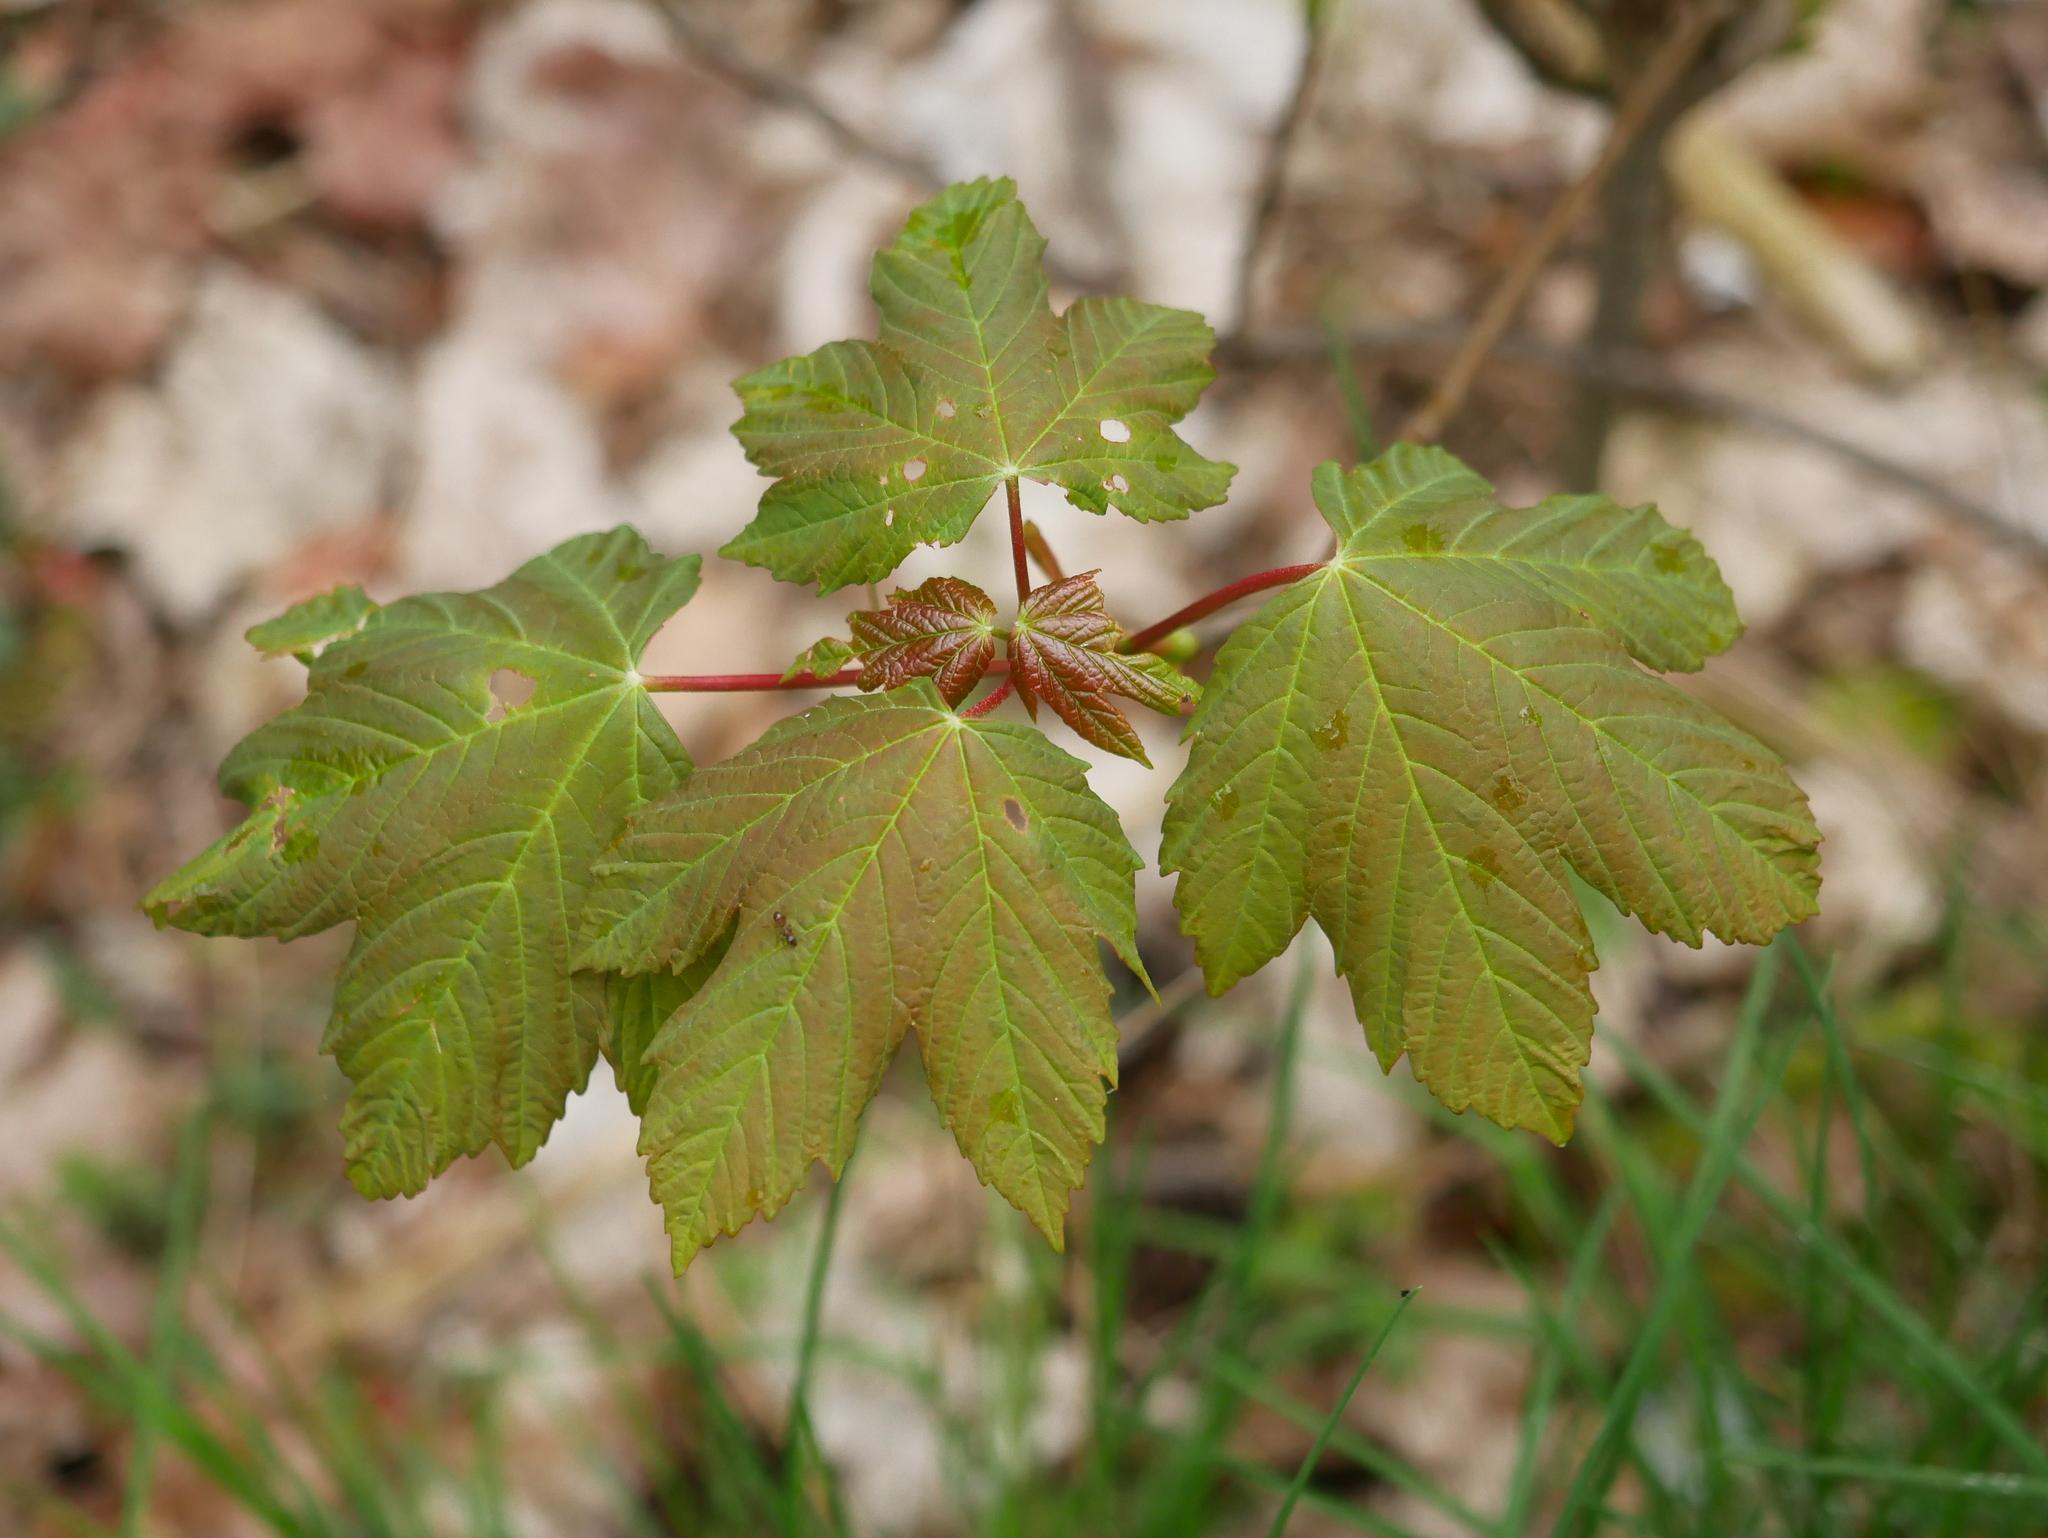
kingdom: Plantae
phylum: Tracheophyta
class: Magnoliopsida
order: Sapindales
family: Sapindaceae
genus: Acer
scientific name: Acer pseudoplatanus
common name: Sycamore
